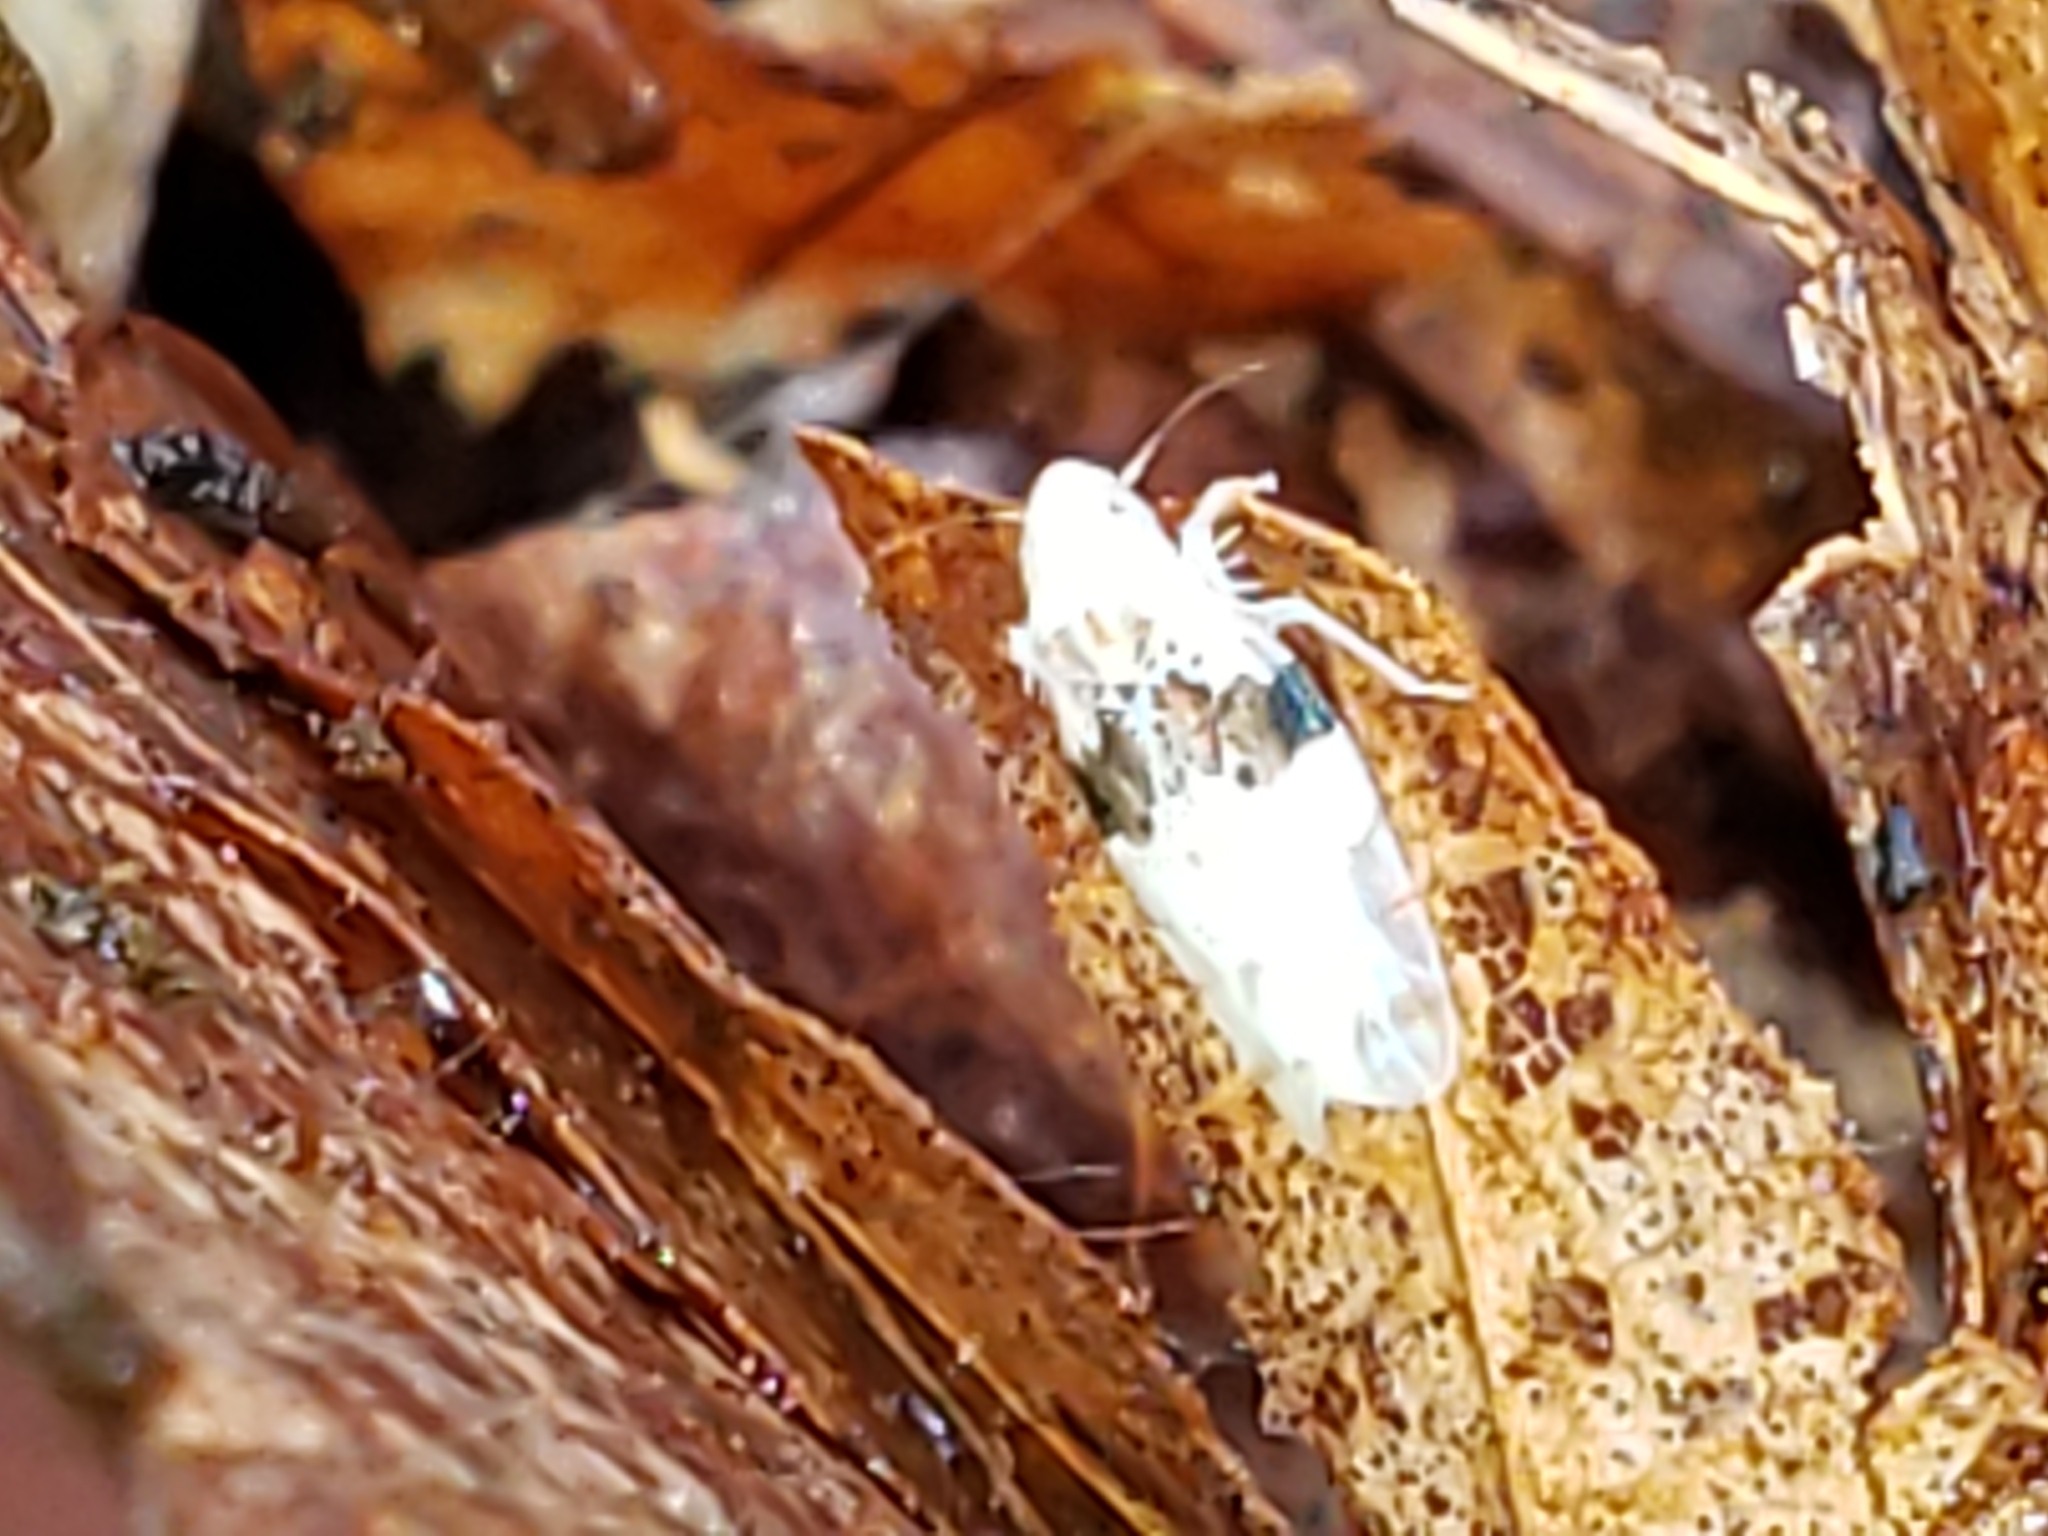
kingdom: Animalia
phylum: Arthropoda
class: Insecta
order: Hemiptera
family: Cicadellidae
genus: Hymetta
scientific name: Hymetta balteata
